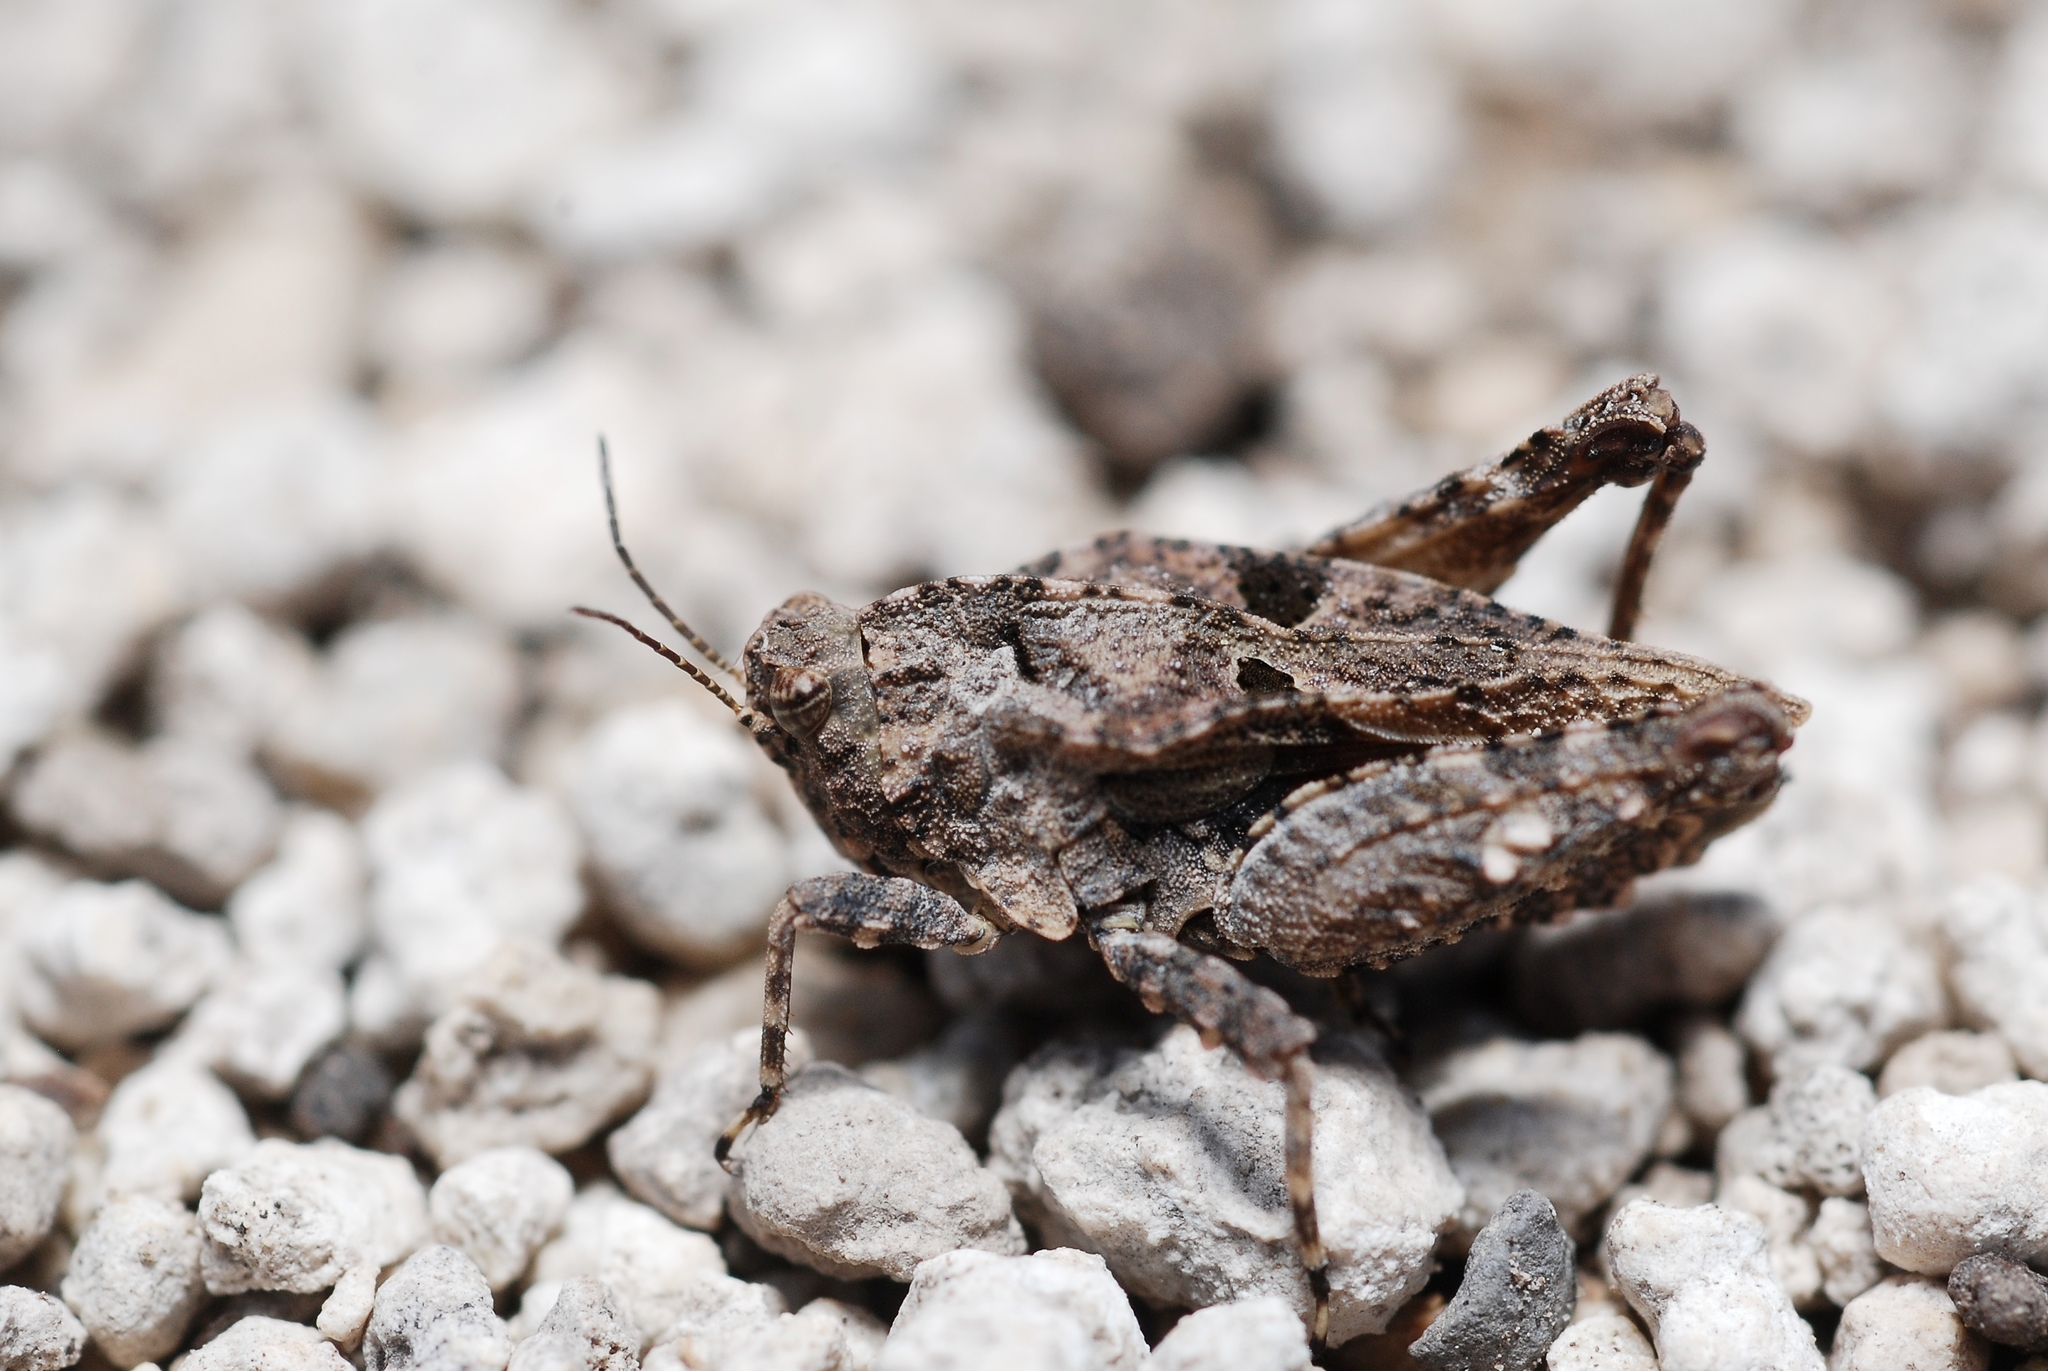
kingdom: Animalia
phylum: Arthropoda
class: Insecta
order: Orthoptera
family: Tetrigidae
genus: Tetrix
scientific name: Tetrix depressa
